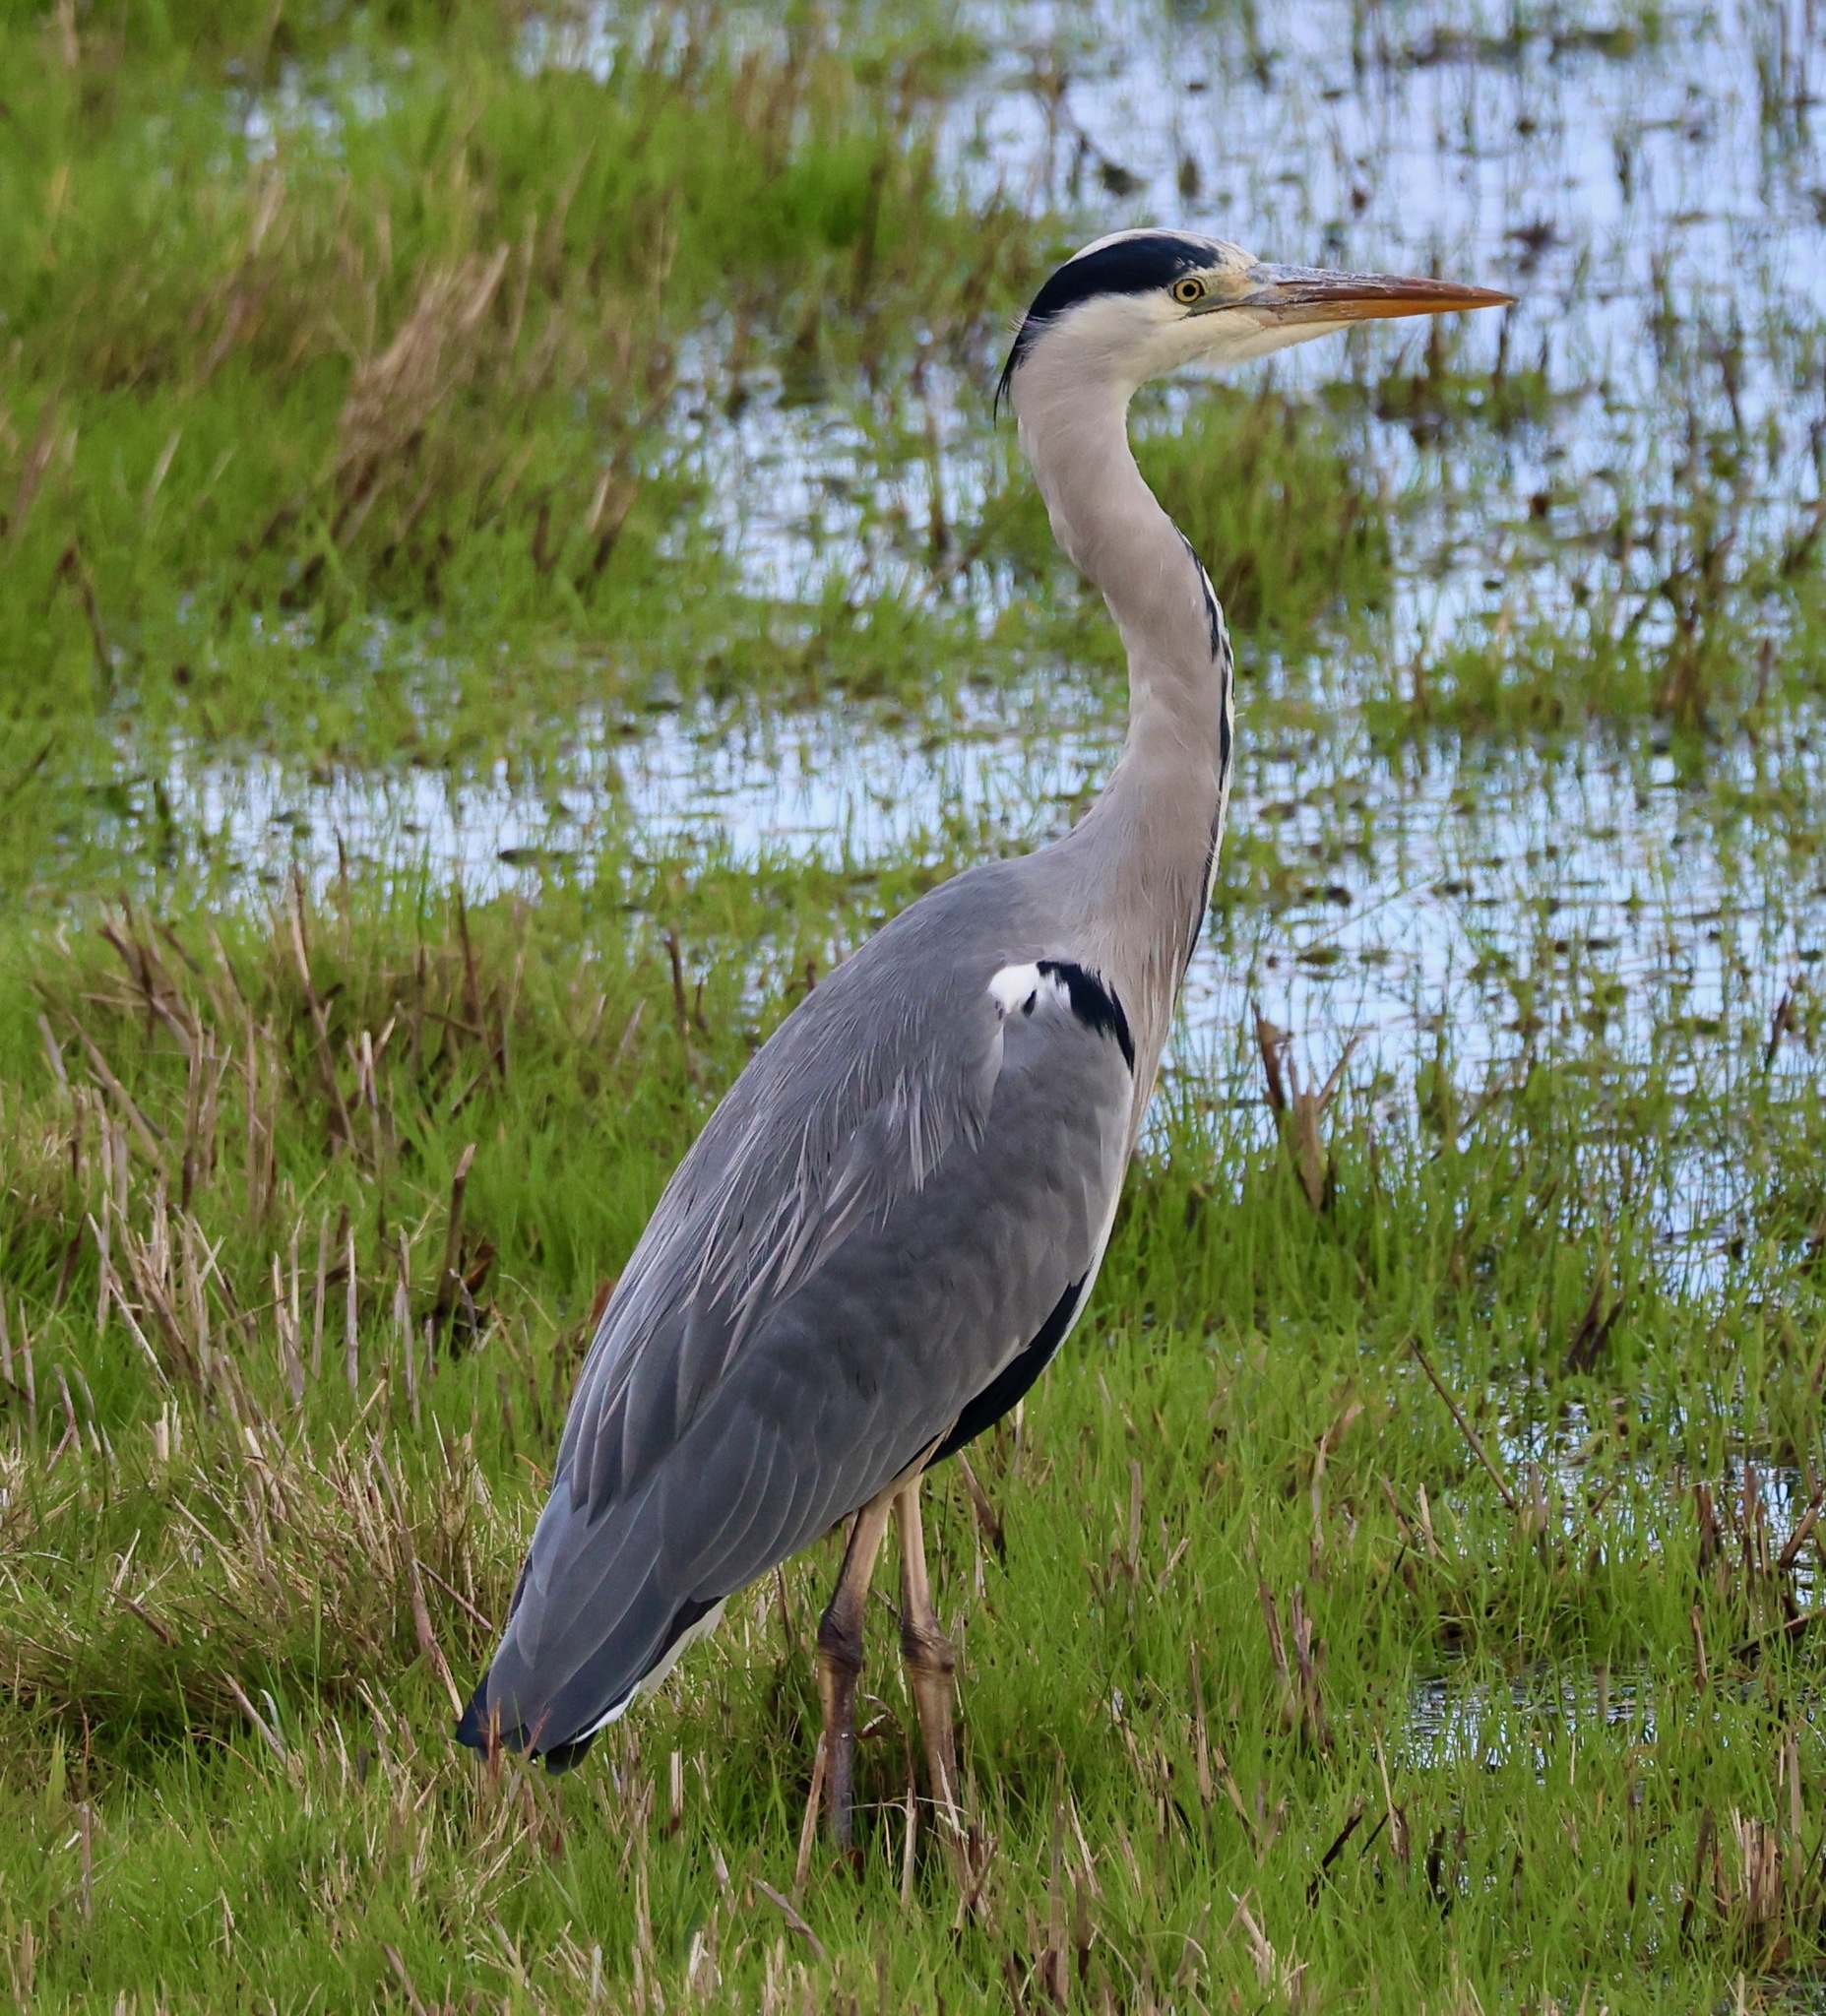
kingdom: Animalia
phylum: Chordata
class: Aves
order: Pelecaniformes
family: Ardeidae
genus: Ardea
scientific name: Ardea cinerea
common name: Grey heron
